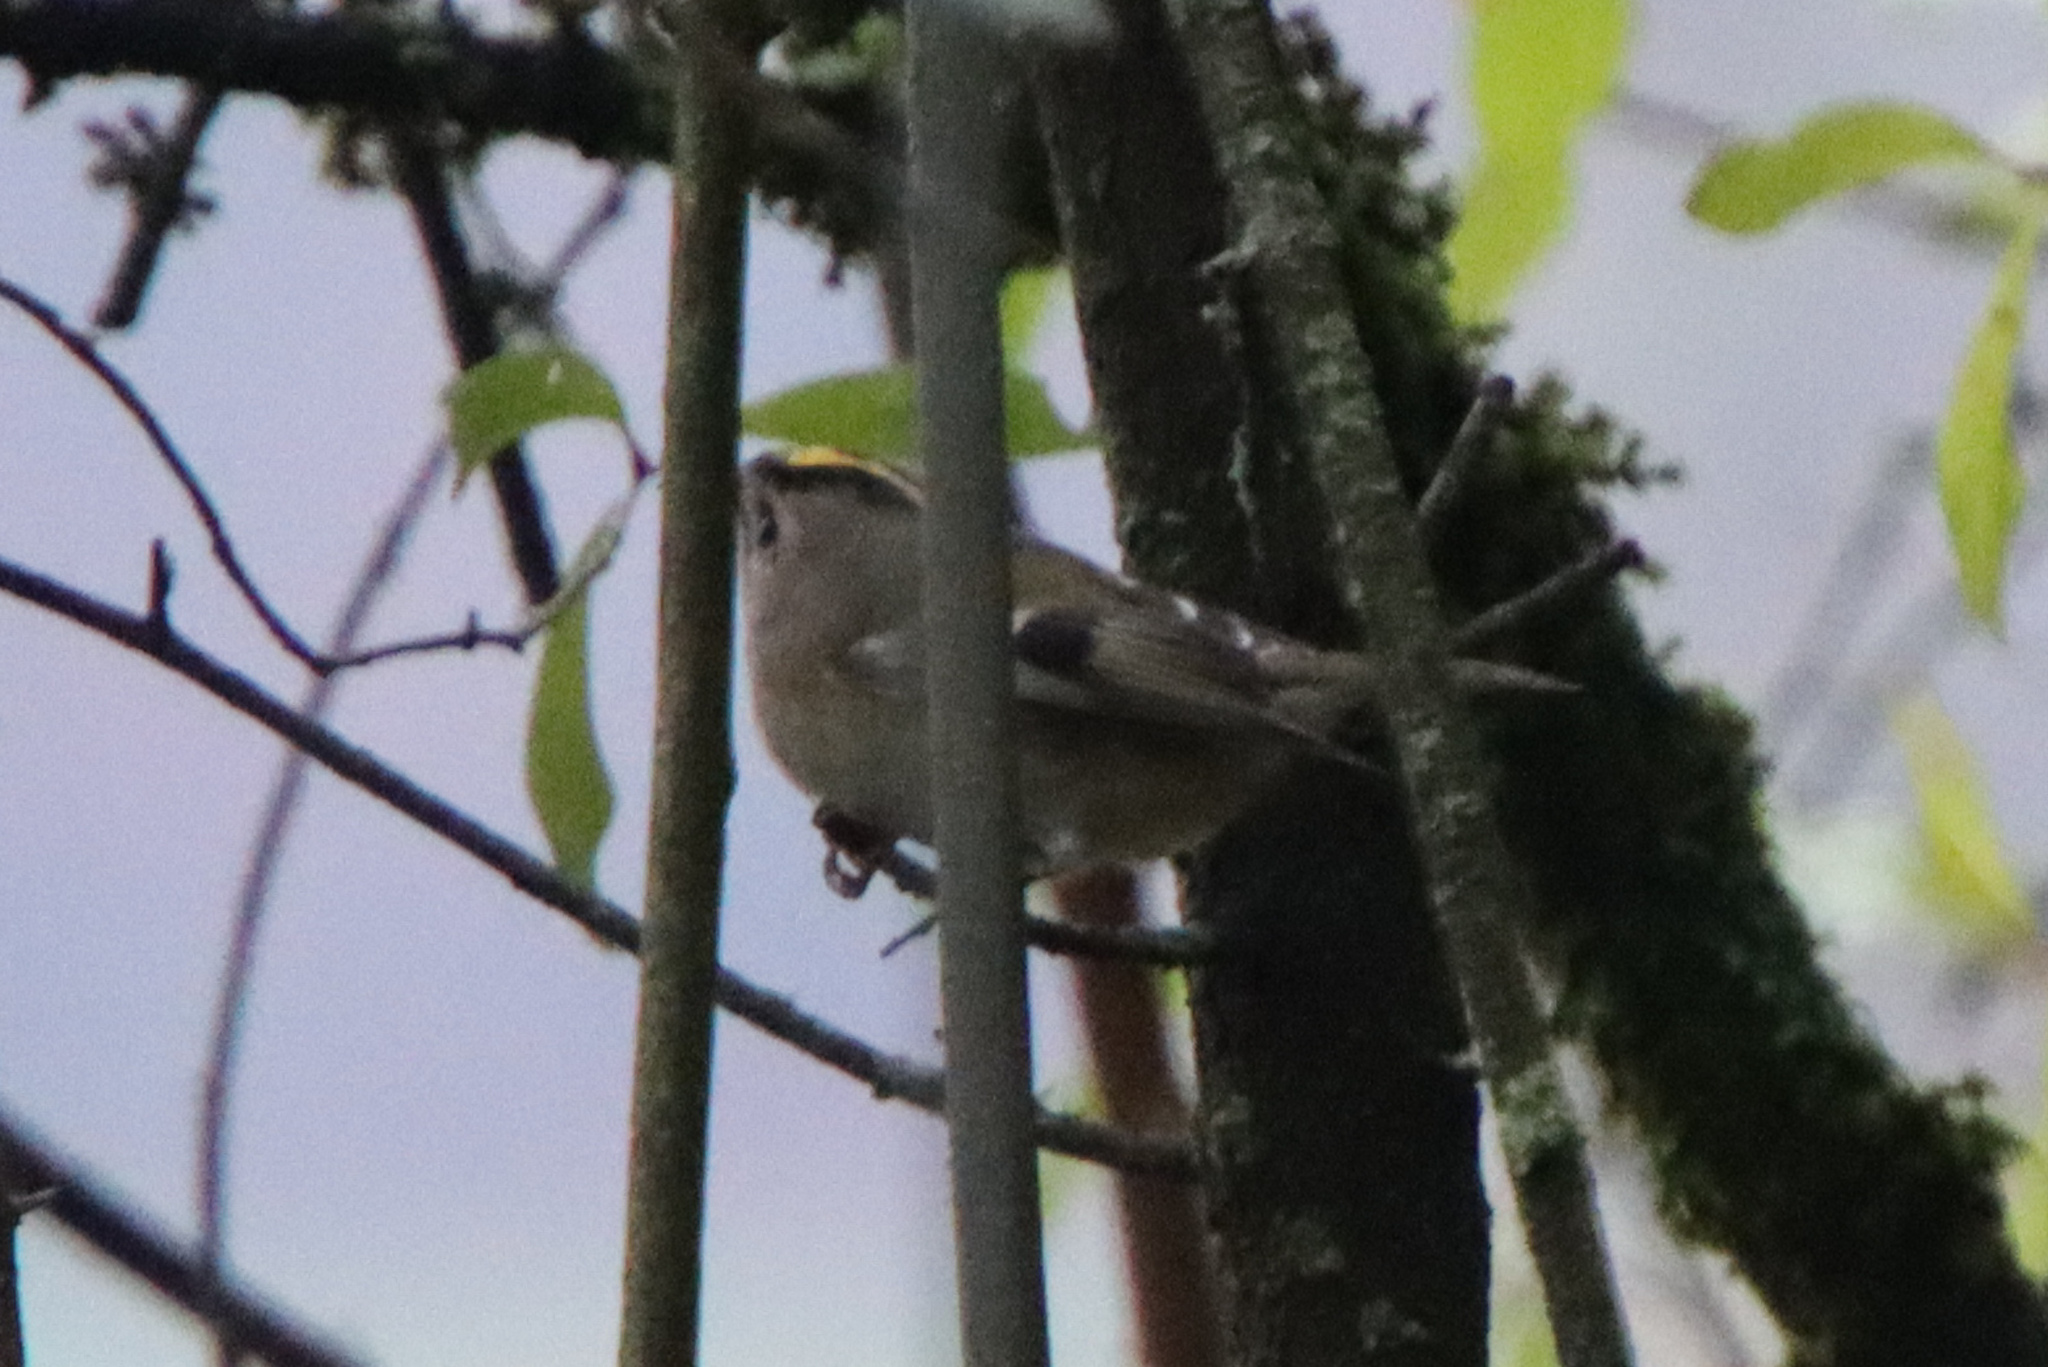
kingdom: Animalia
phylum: Chordata
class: Aves
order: Passeriformes
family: Regulidae
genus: Regulus
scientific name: Regulus regulus
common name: Goldcrest
